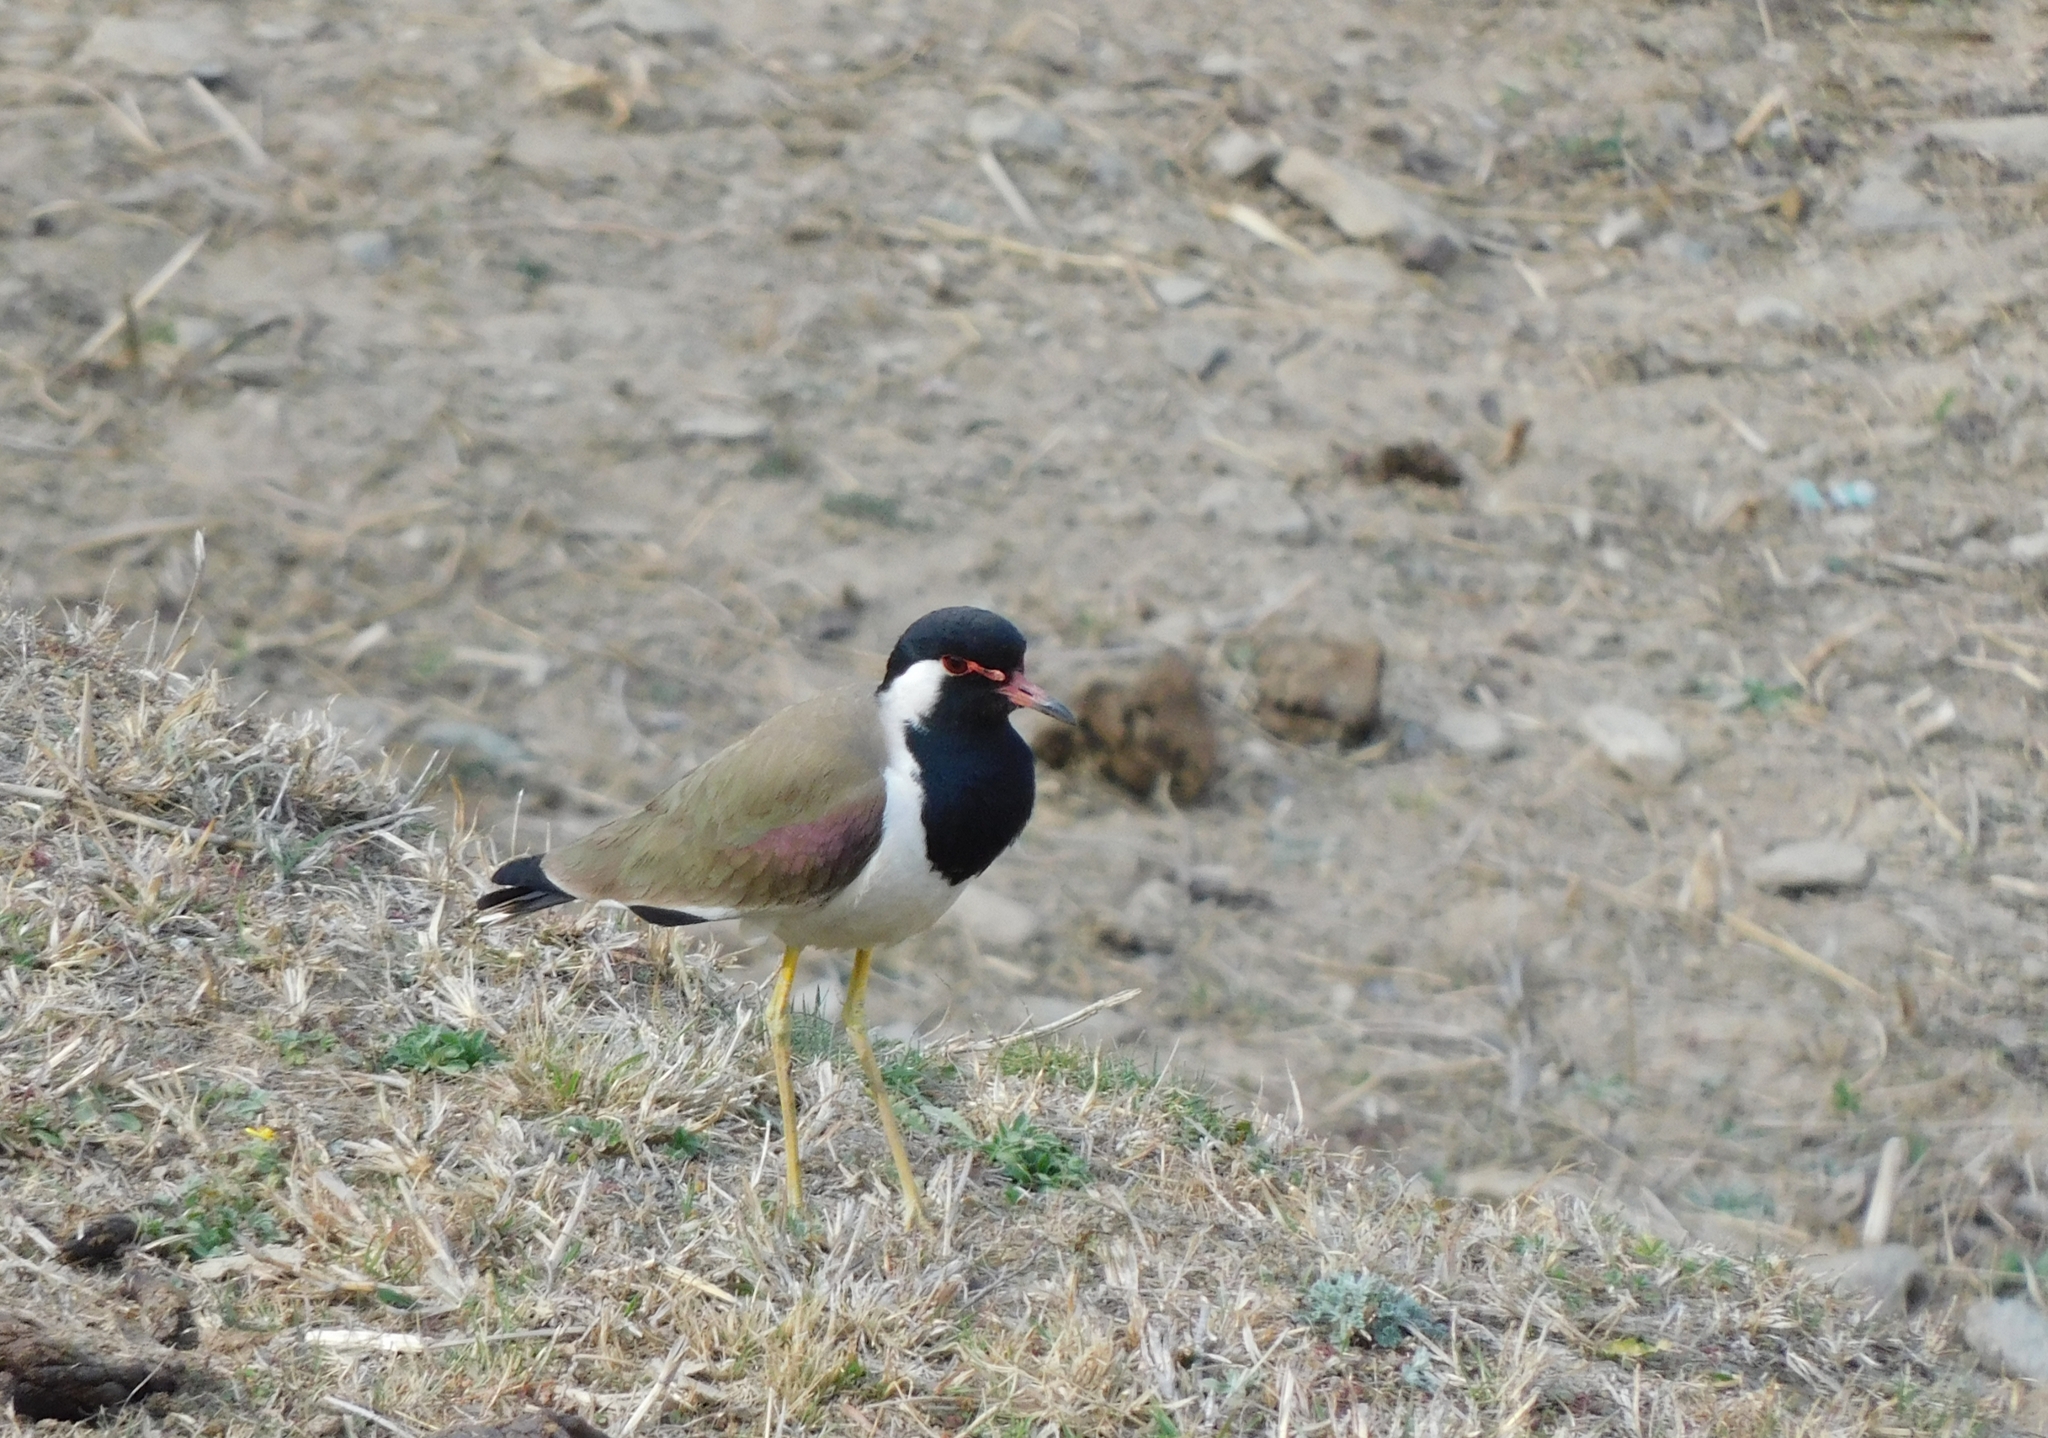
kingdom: Animalia
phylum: Chordata
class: Aves
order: Charadriiformes
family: Charadriidae
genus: Vanellus
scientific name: Vanellus indicus
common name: Red-wattled lapwing
